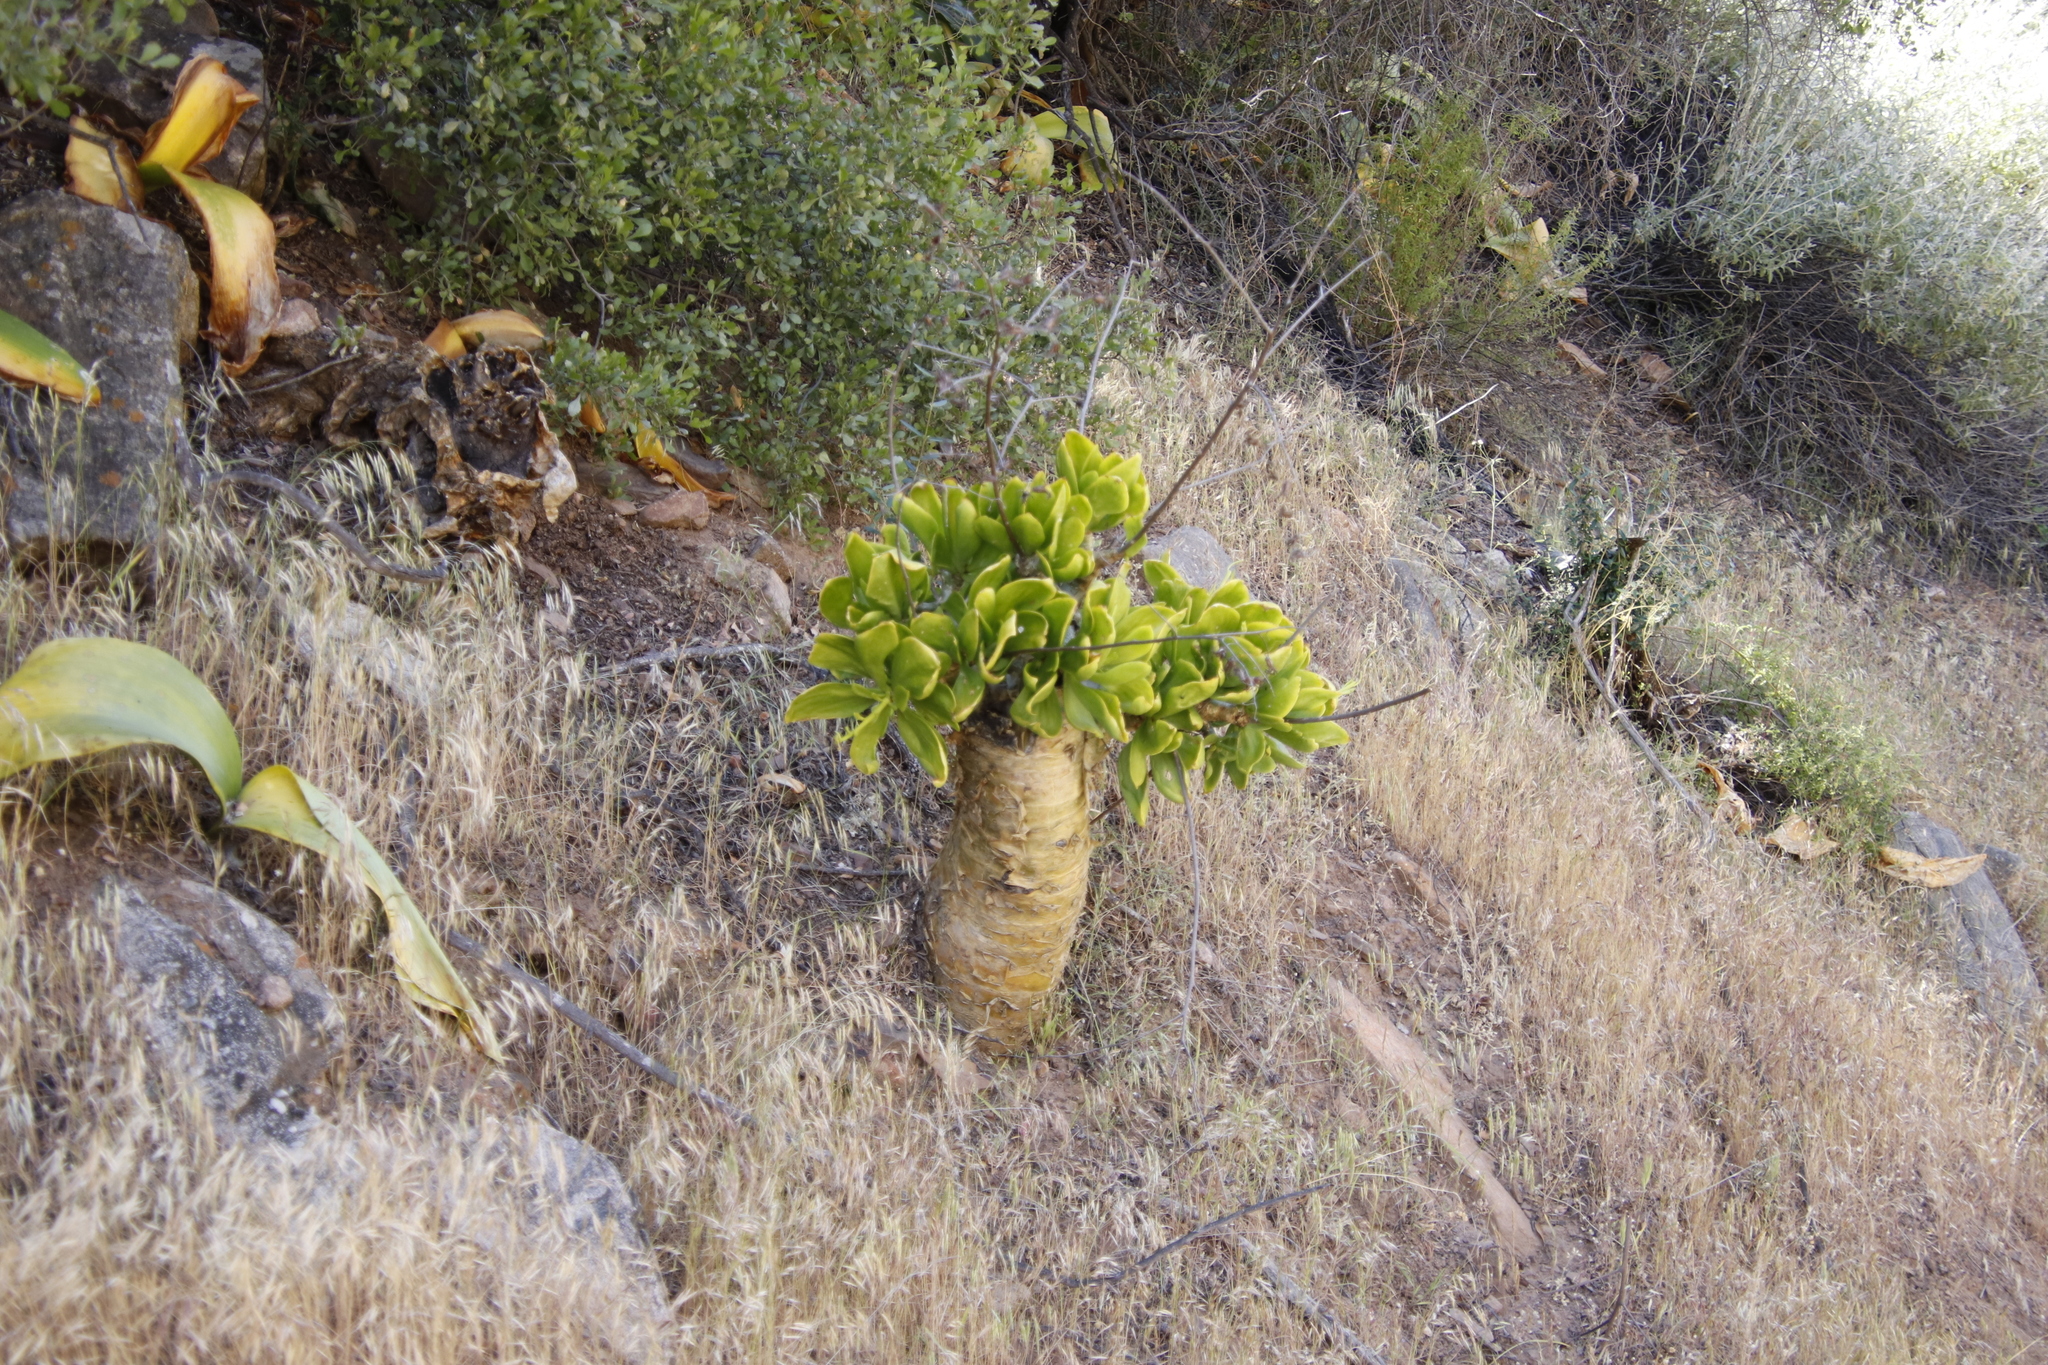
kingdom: Plantae
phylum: Tracheophyta
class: Magnoliopsida
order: Saxifragales
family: Crassulaceae
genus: Tylecodon
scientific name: Tylecodon paniculatus
